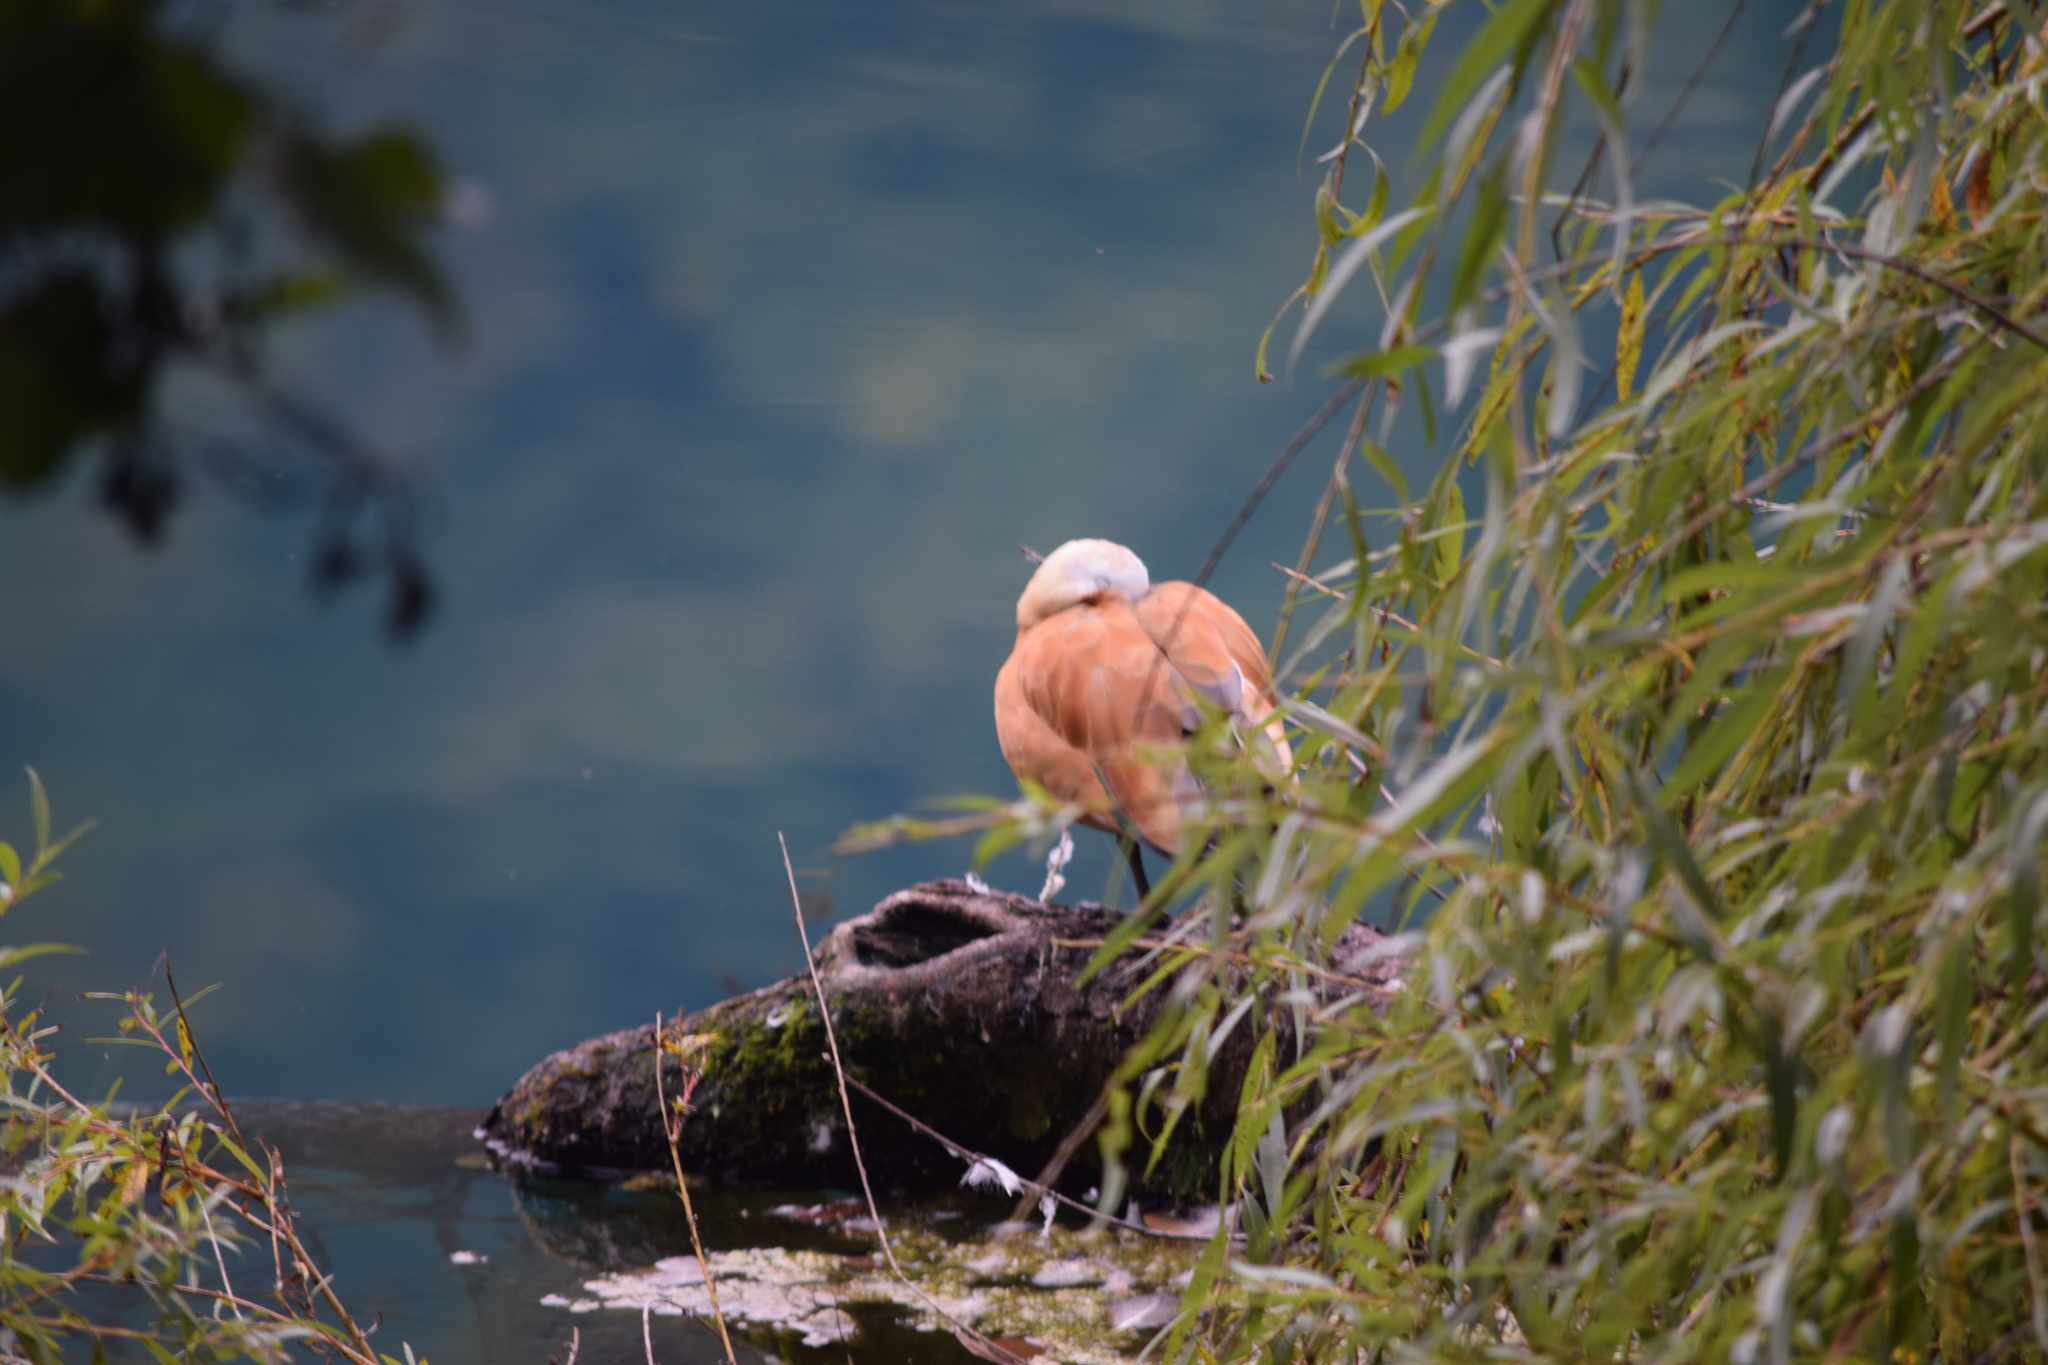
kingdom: Animalia
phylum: Chordata
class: Aves
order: Anseriformes
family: Anatidae
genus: Tadorna
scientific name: Tadorna ferruginea
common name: Ruddy shelduck
